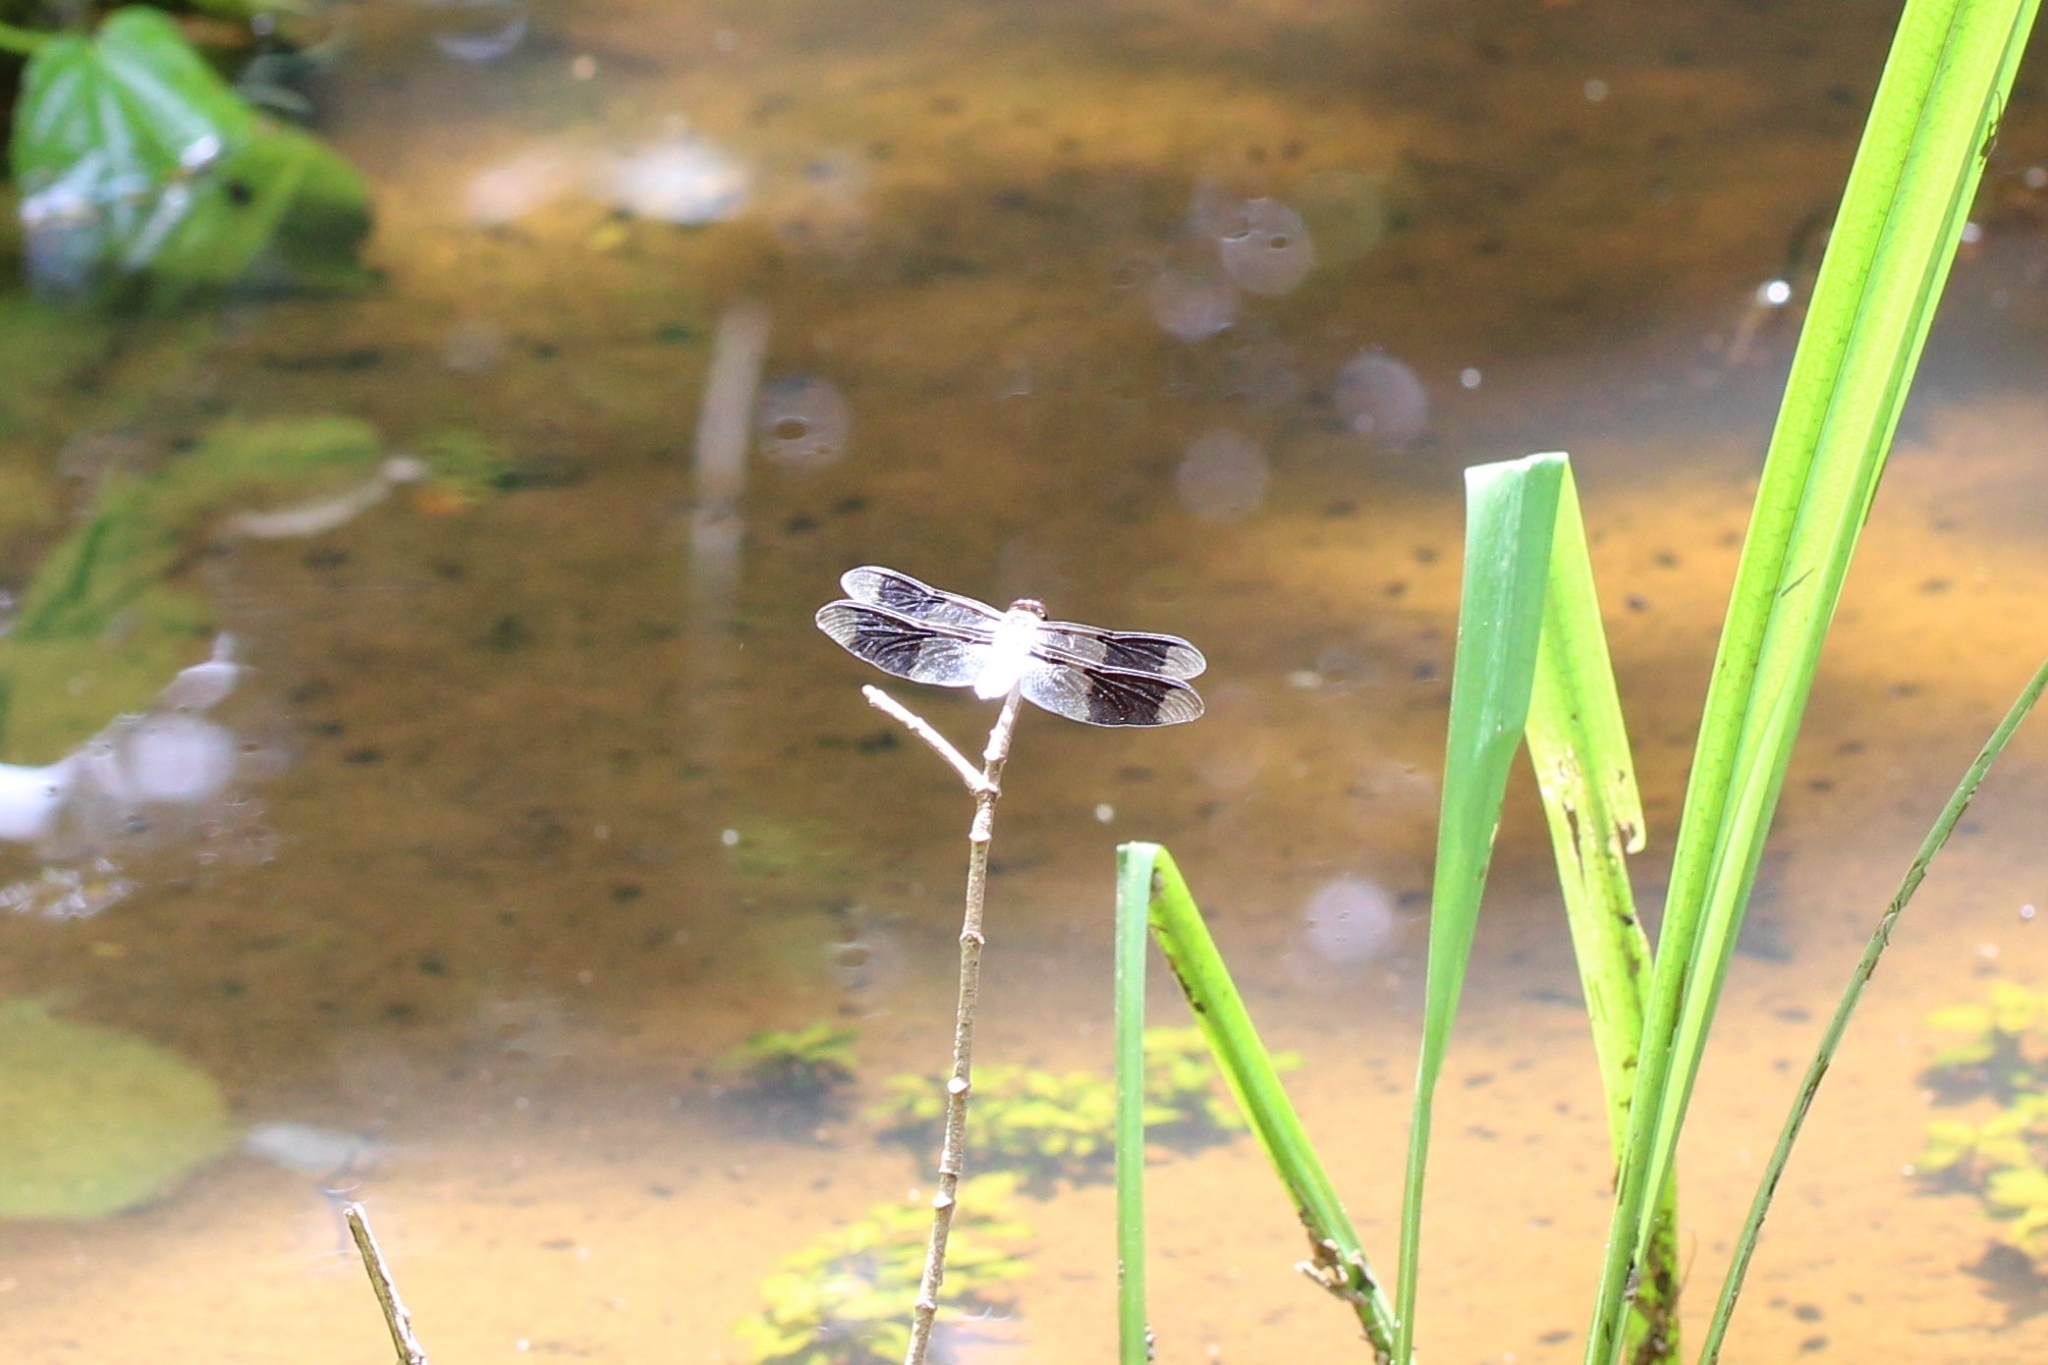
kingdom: Animalia
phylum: Arthropoda
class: Insecta
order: Odonata
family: Libellulidae
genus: Plathemis
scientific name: Plathemis lydia
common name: Common whitetail
